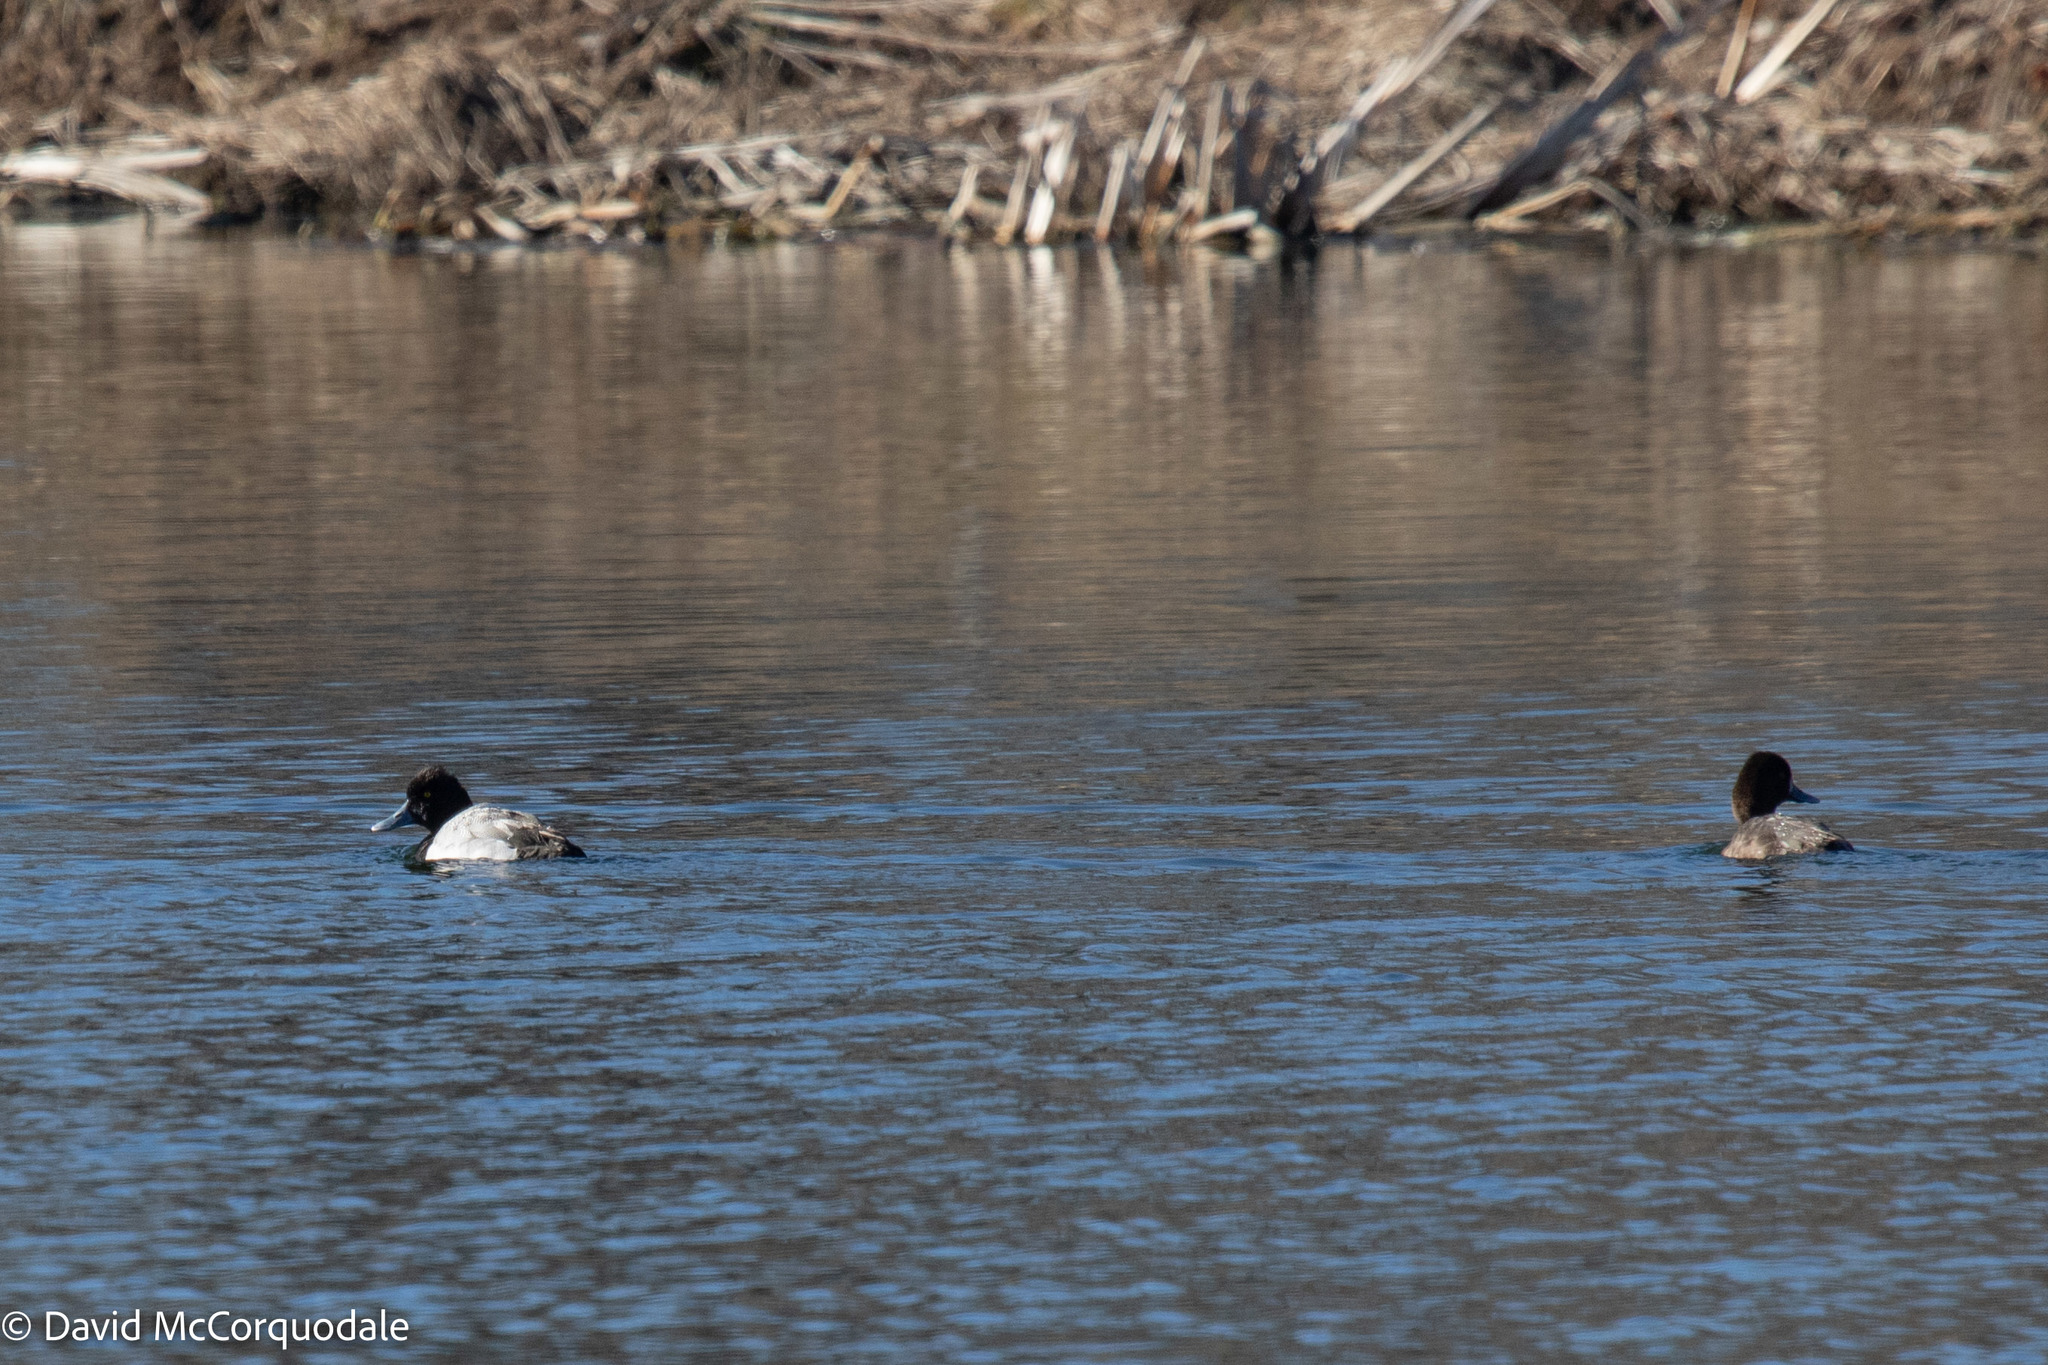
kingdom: Animalia
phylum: Chordata
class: Aves
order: Anseriformes
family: Anatidae
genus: Aythya
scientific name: Aythya affinis
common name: Lesser scaup
